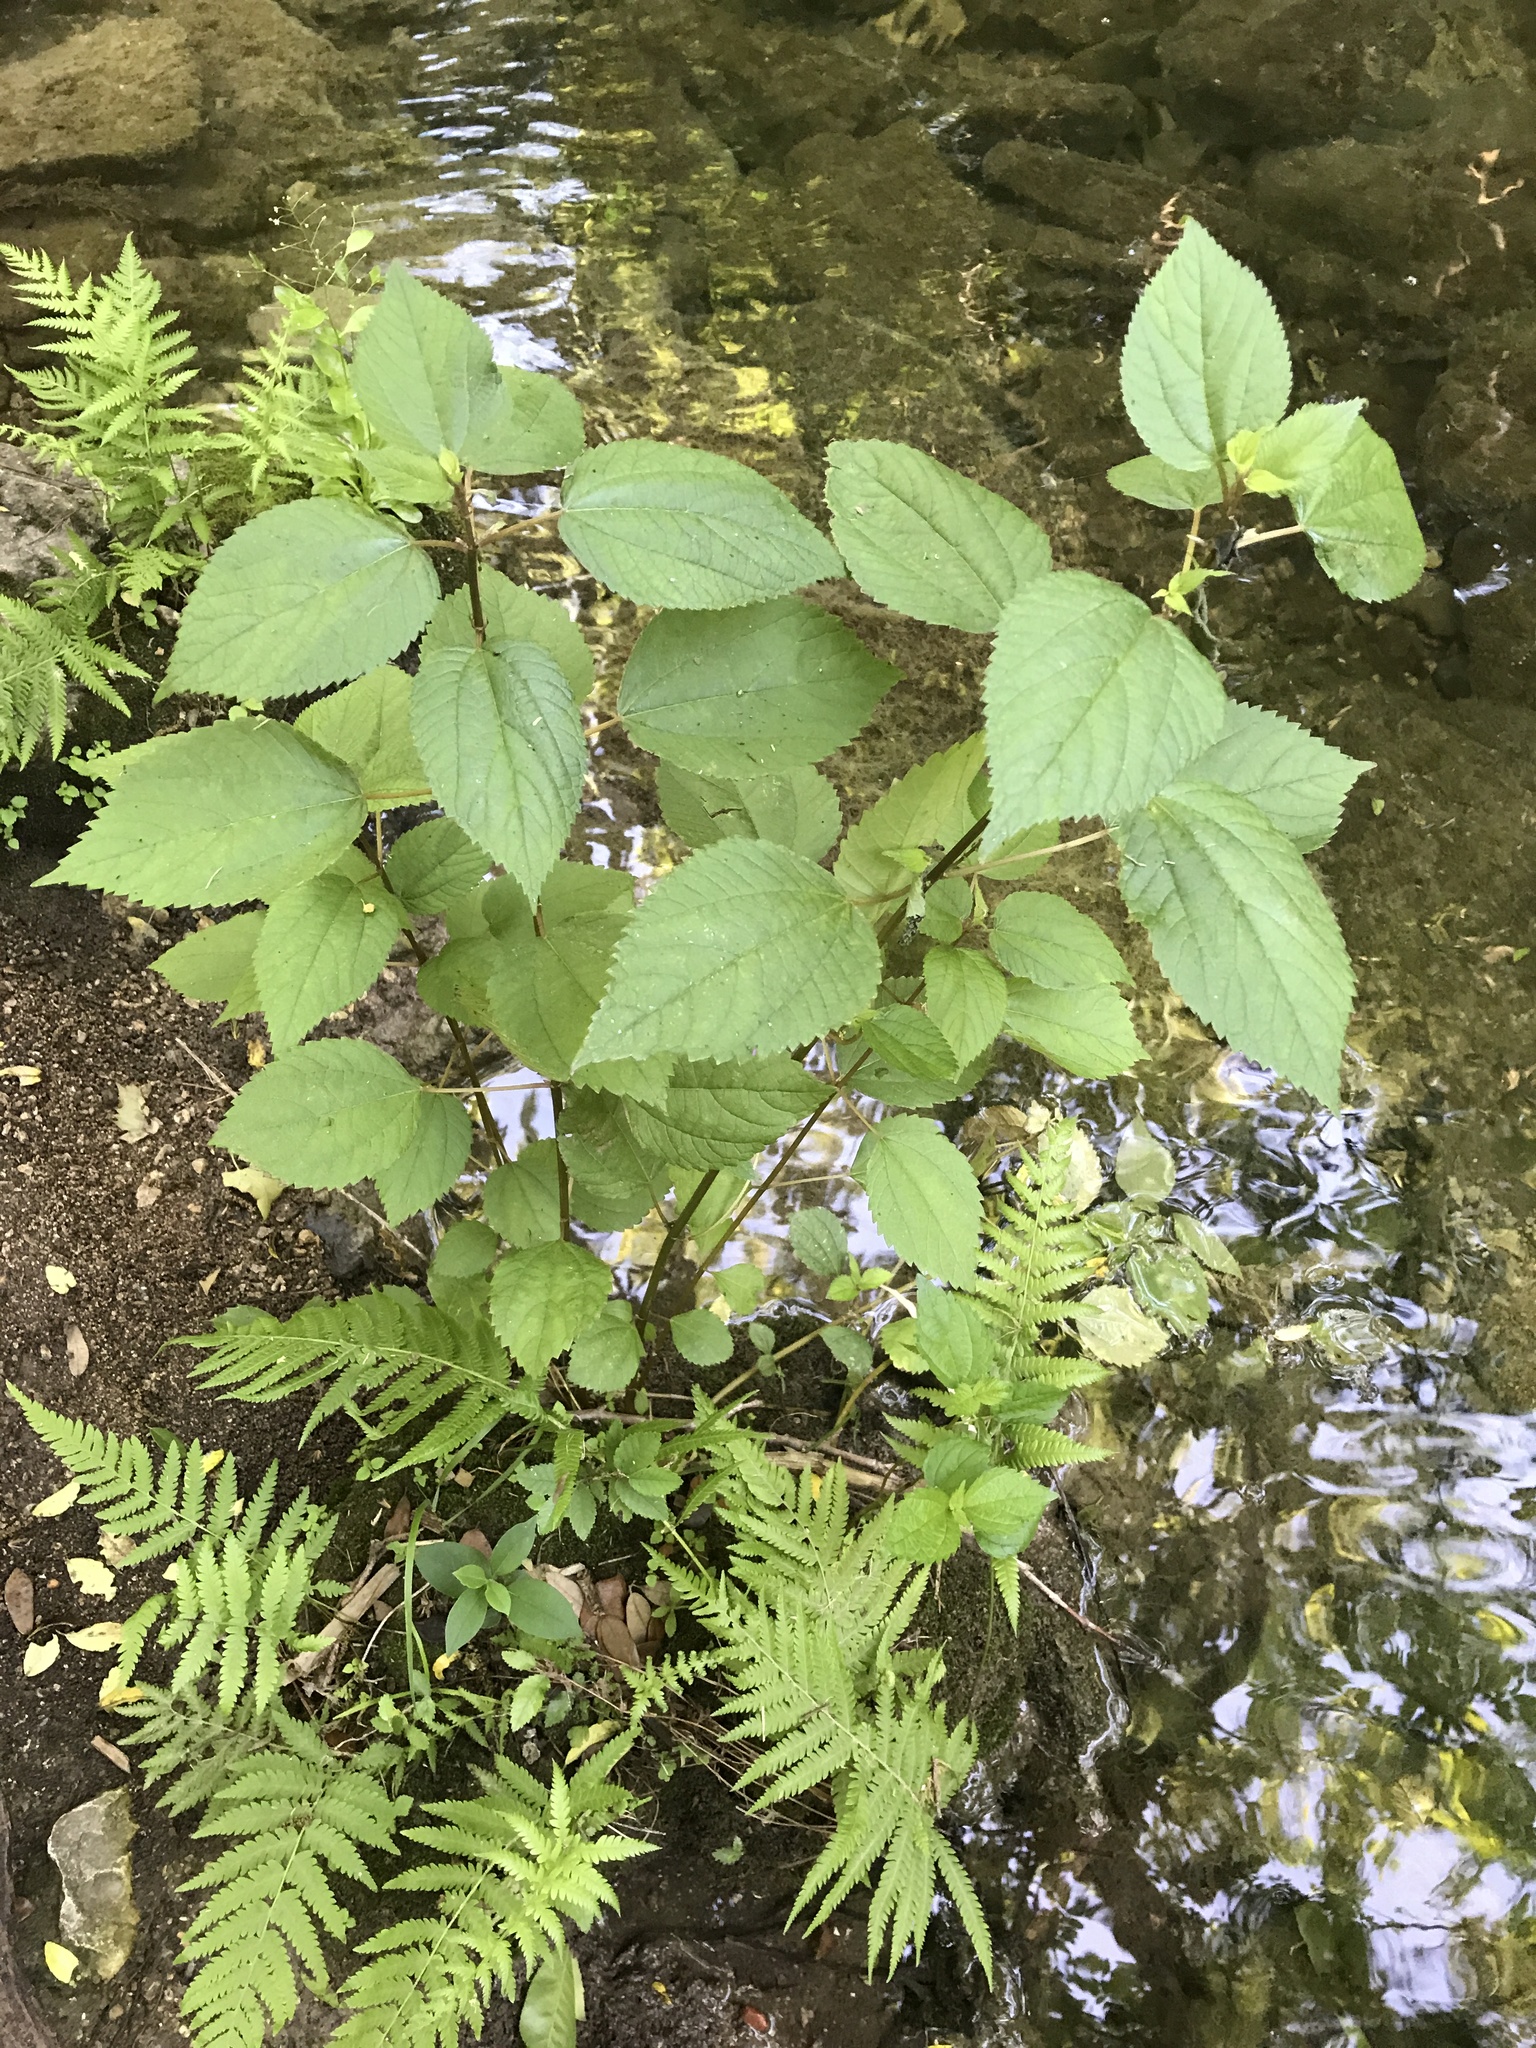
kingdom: Plantae
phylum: Tracheophyta
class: Magnoliopsida
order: Rosales
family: Urticaceae
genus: Boehmeria
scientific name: Boehmeria cylindrica
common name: Bog-hemp
